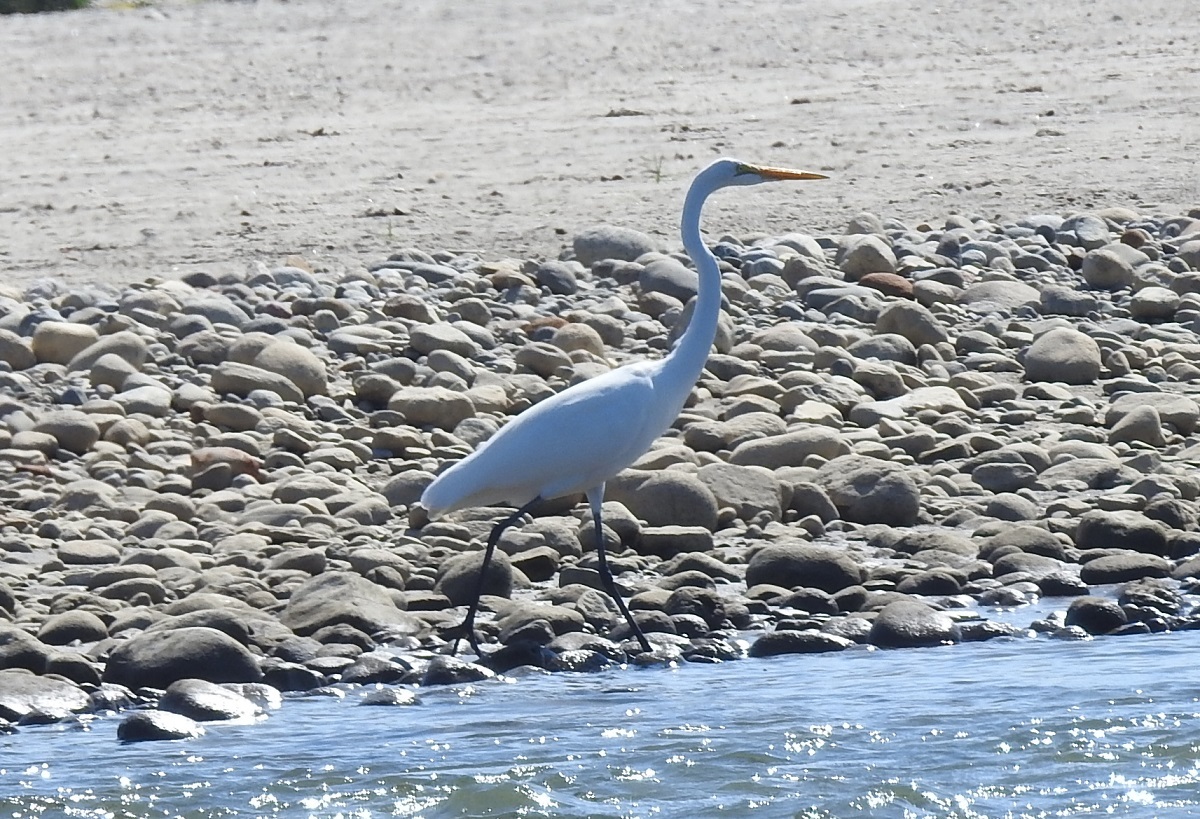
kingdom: Animalia
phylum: Chordata
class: Aves
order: Pelecaniformes
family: Ardeidae
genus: Ardea
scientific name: Ardea alba
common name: Great egret
